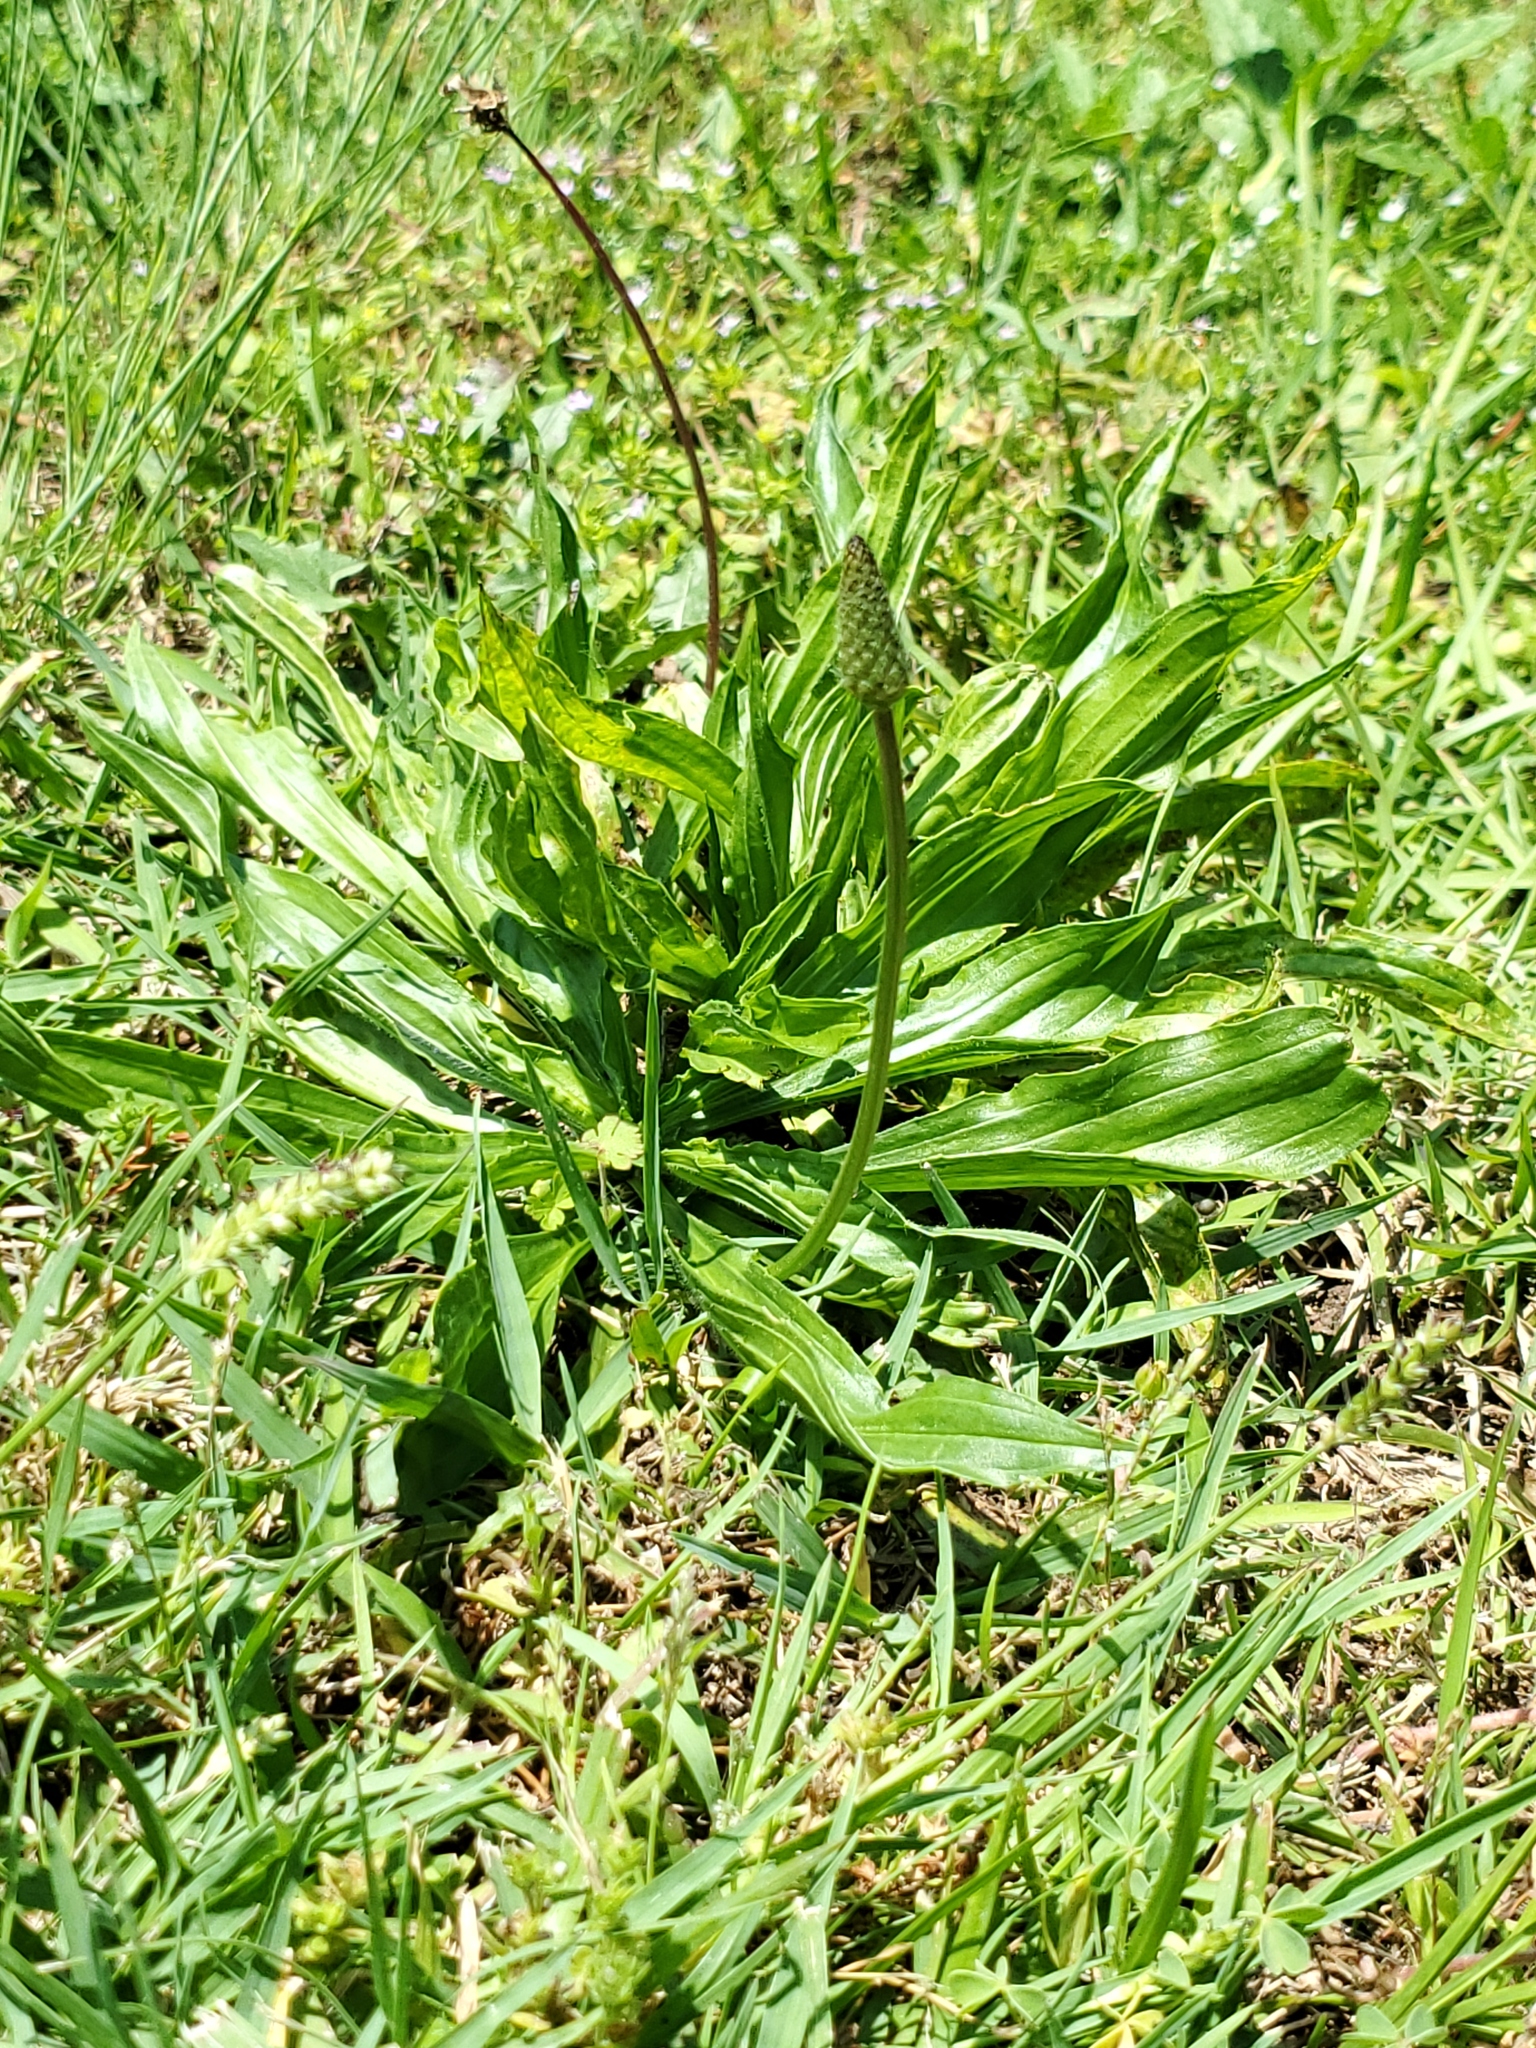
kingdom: Plantae
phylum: Tracheophyta
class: Magnoliopsida
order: Lamiales
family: Plantaginaceae
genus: Plantago
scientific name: Plantago lanceolata
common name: Ribwort plantain
